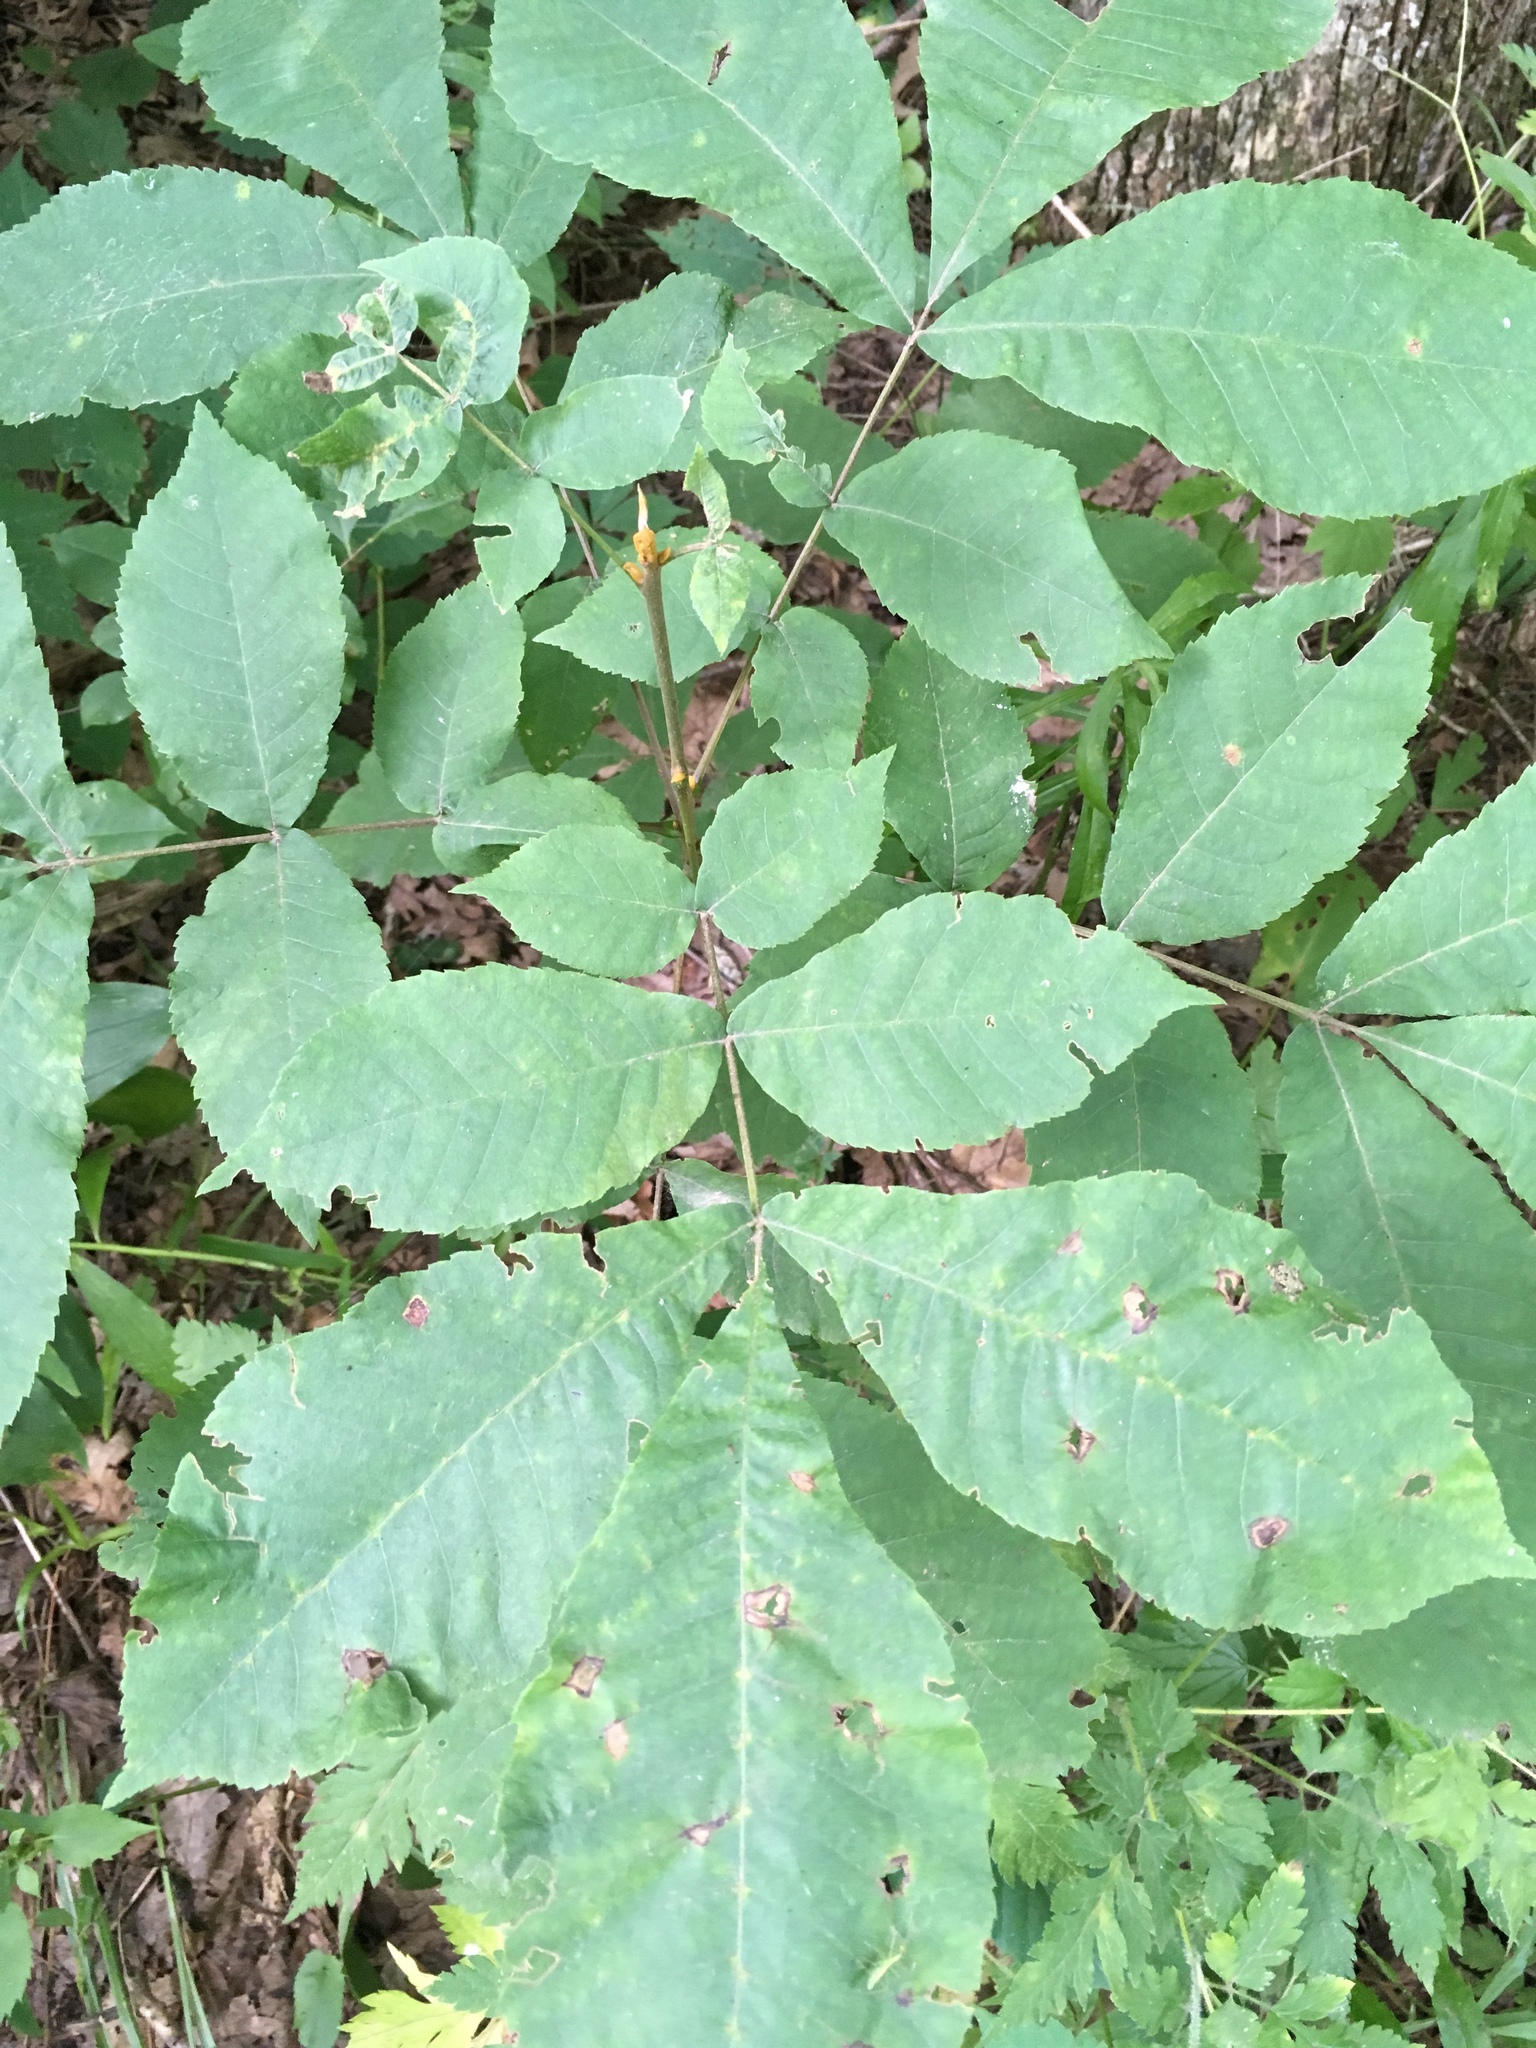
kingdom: Plantae
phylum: Tracheophyta
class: Magnoliopsida
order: Fagales
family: Juglandaceae
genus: Carya
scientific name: Carya cordiformis
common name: Bitternut hickory
